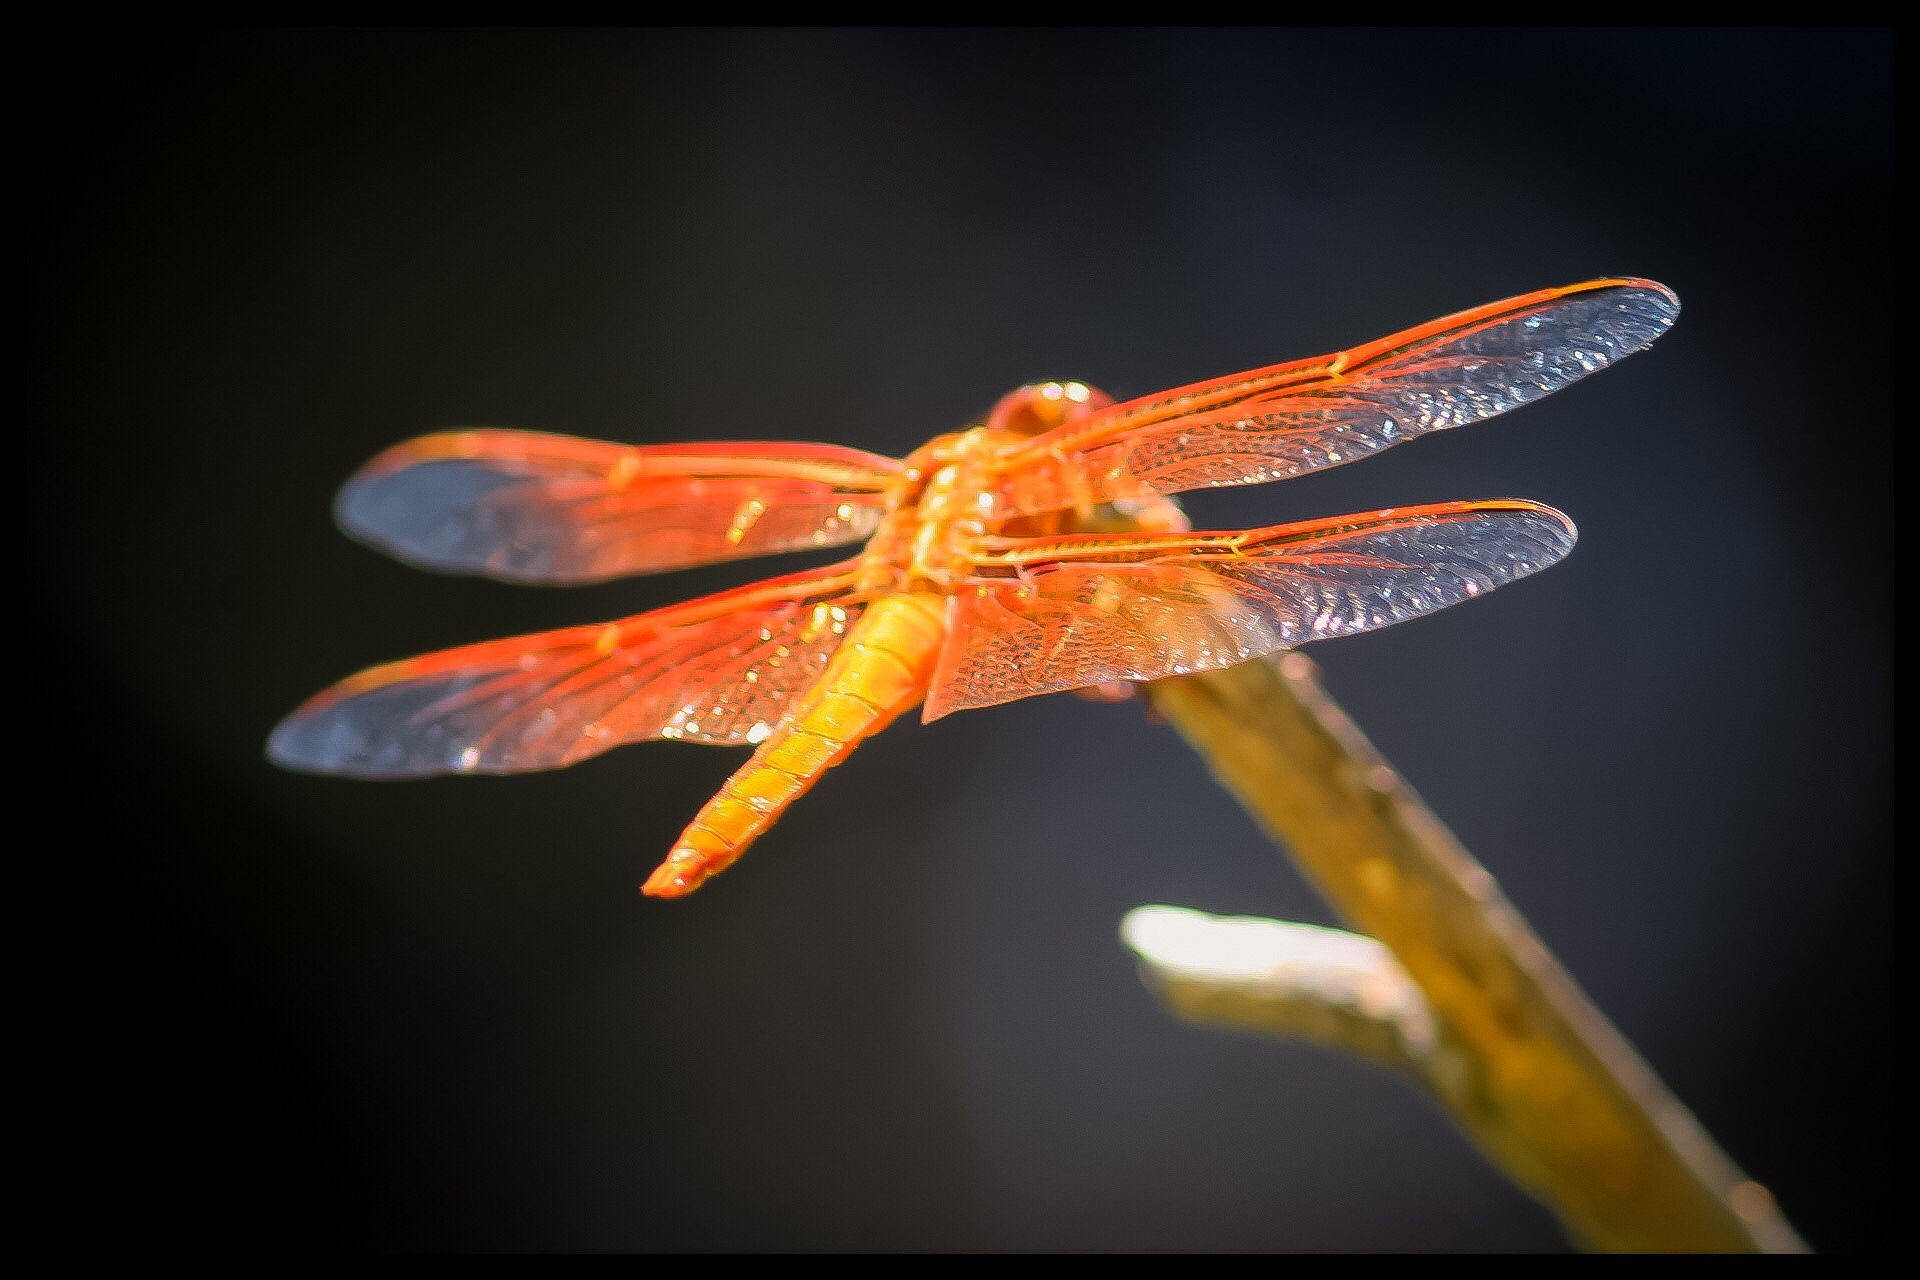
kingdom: Animalia
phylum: Arthropoda
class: Insecta
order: Odonata
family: Libellulidae
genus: Libellula
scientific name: Libellula saturata
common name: Flame skimmer
